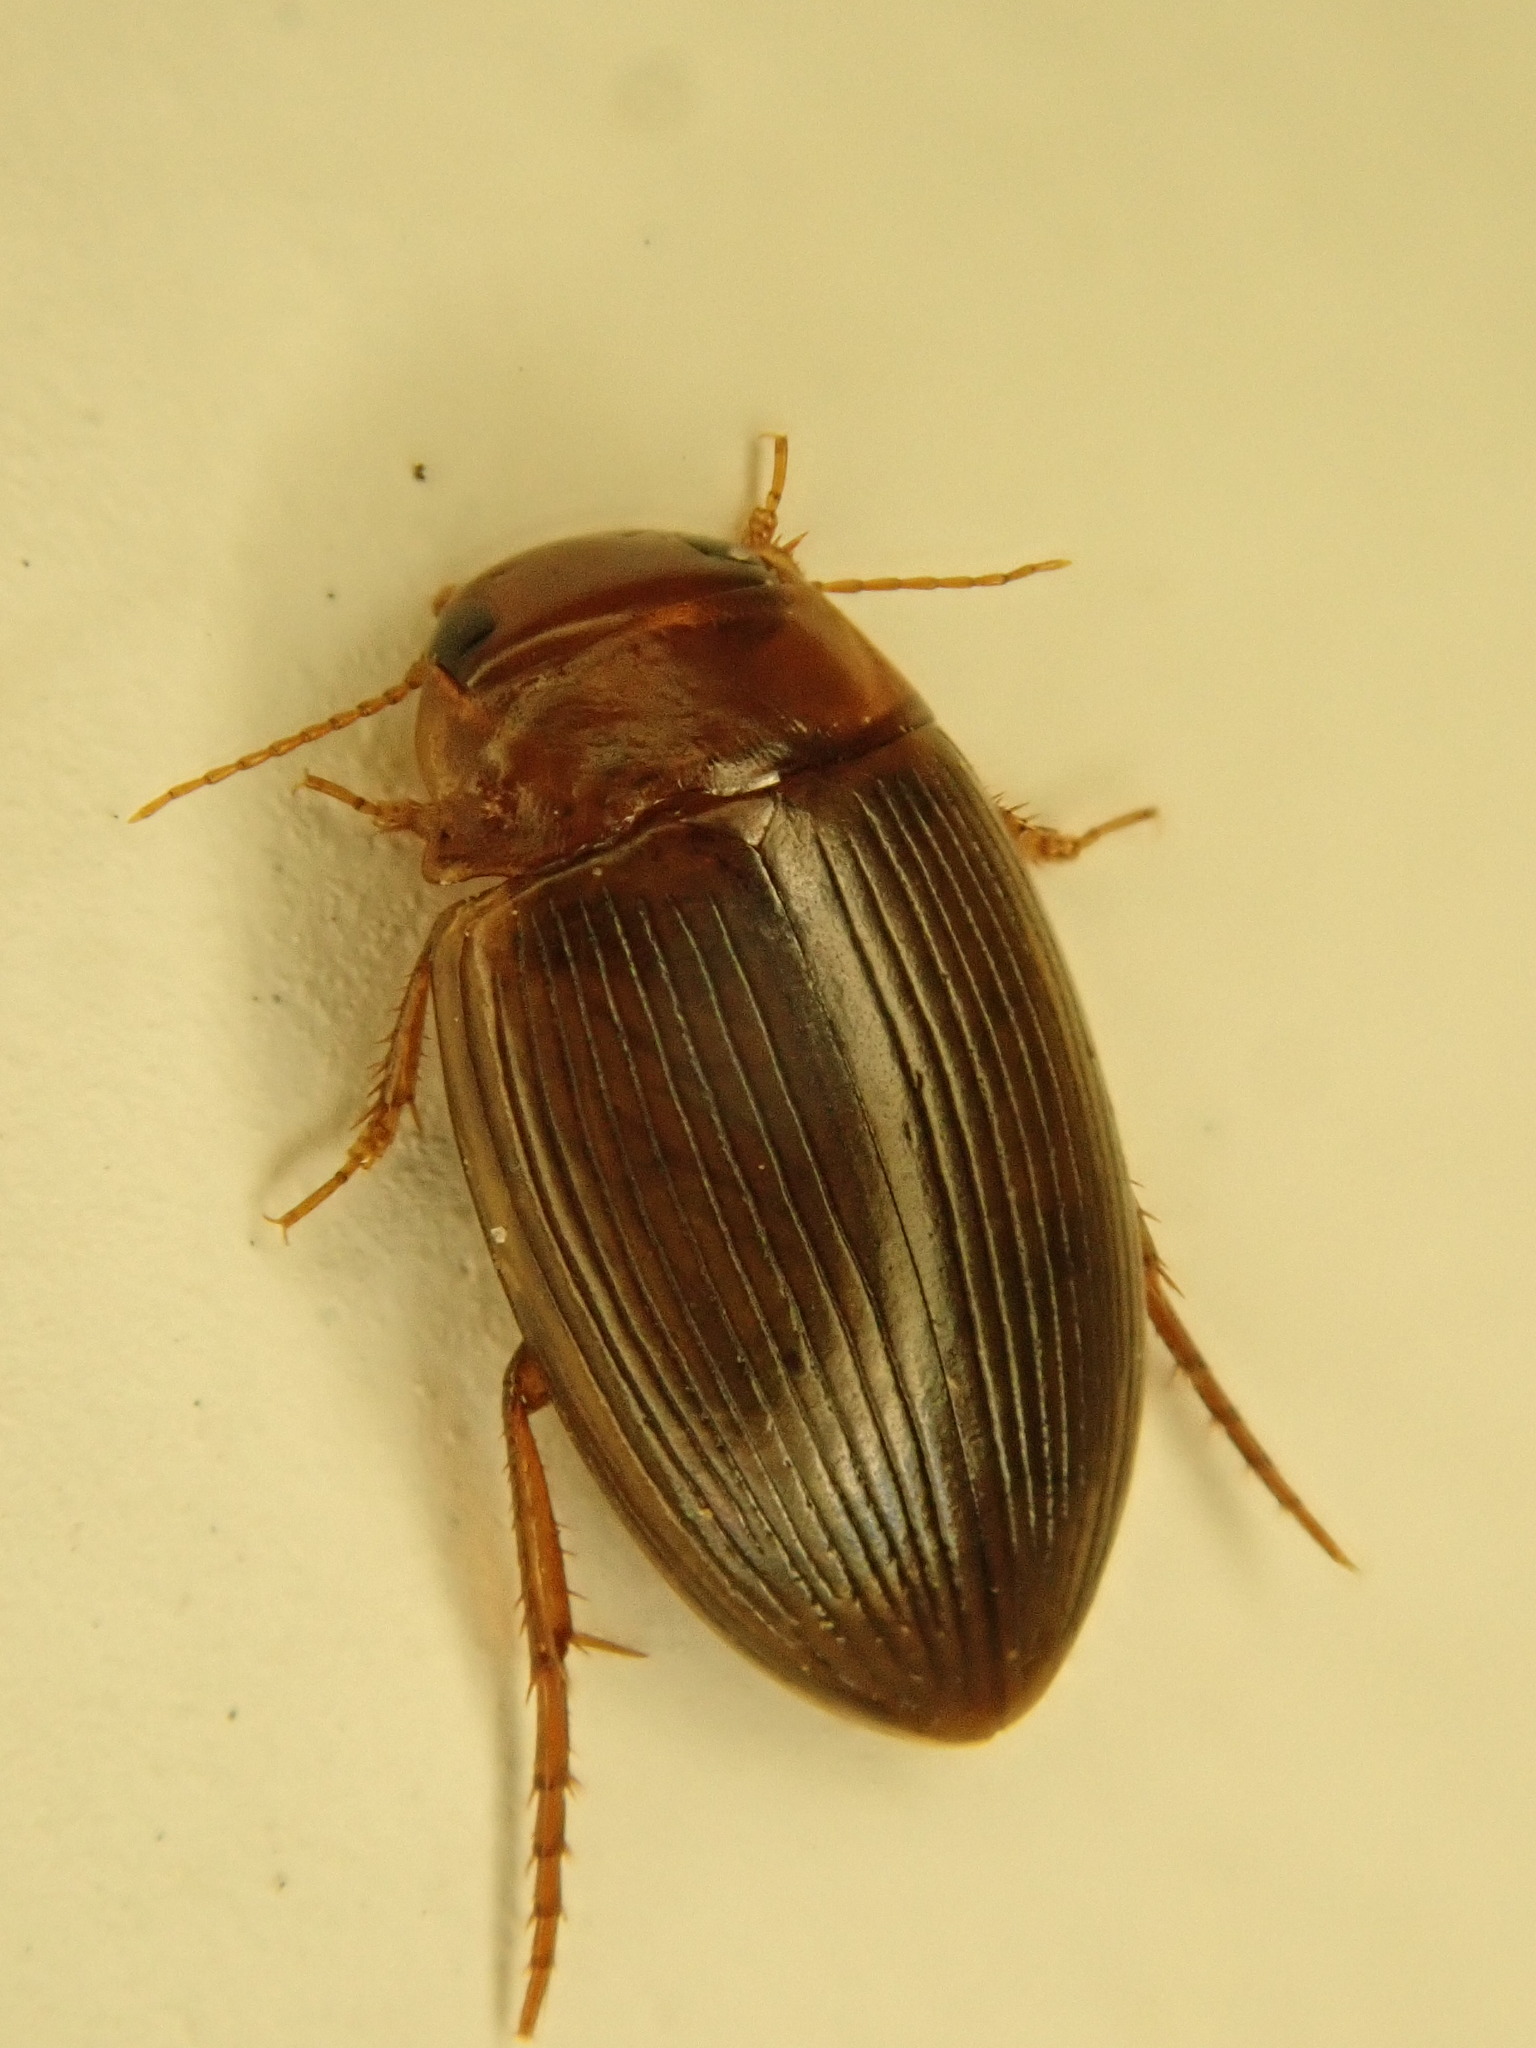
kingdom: Animalia
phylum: Arthropoda
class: Insecta
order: Coleoptera
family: Dytiscidae
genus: Copelatus
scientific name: Copelatus glyphicus
